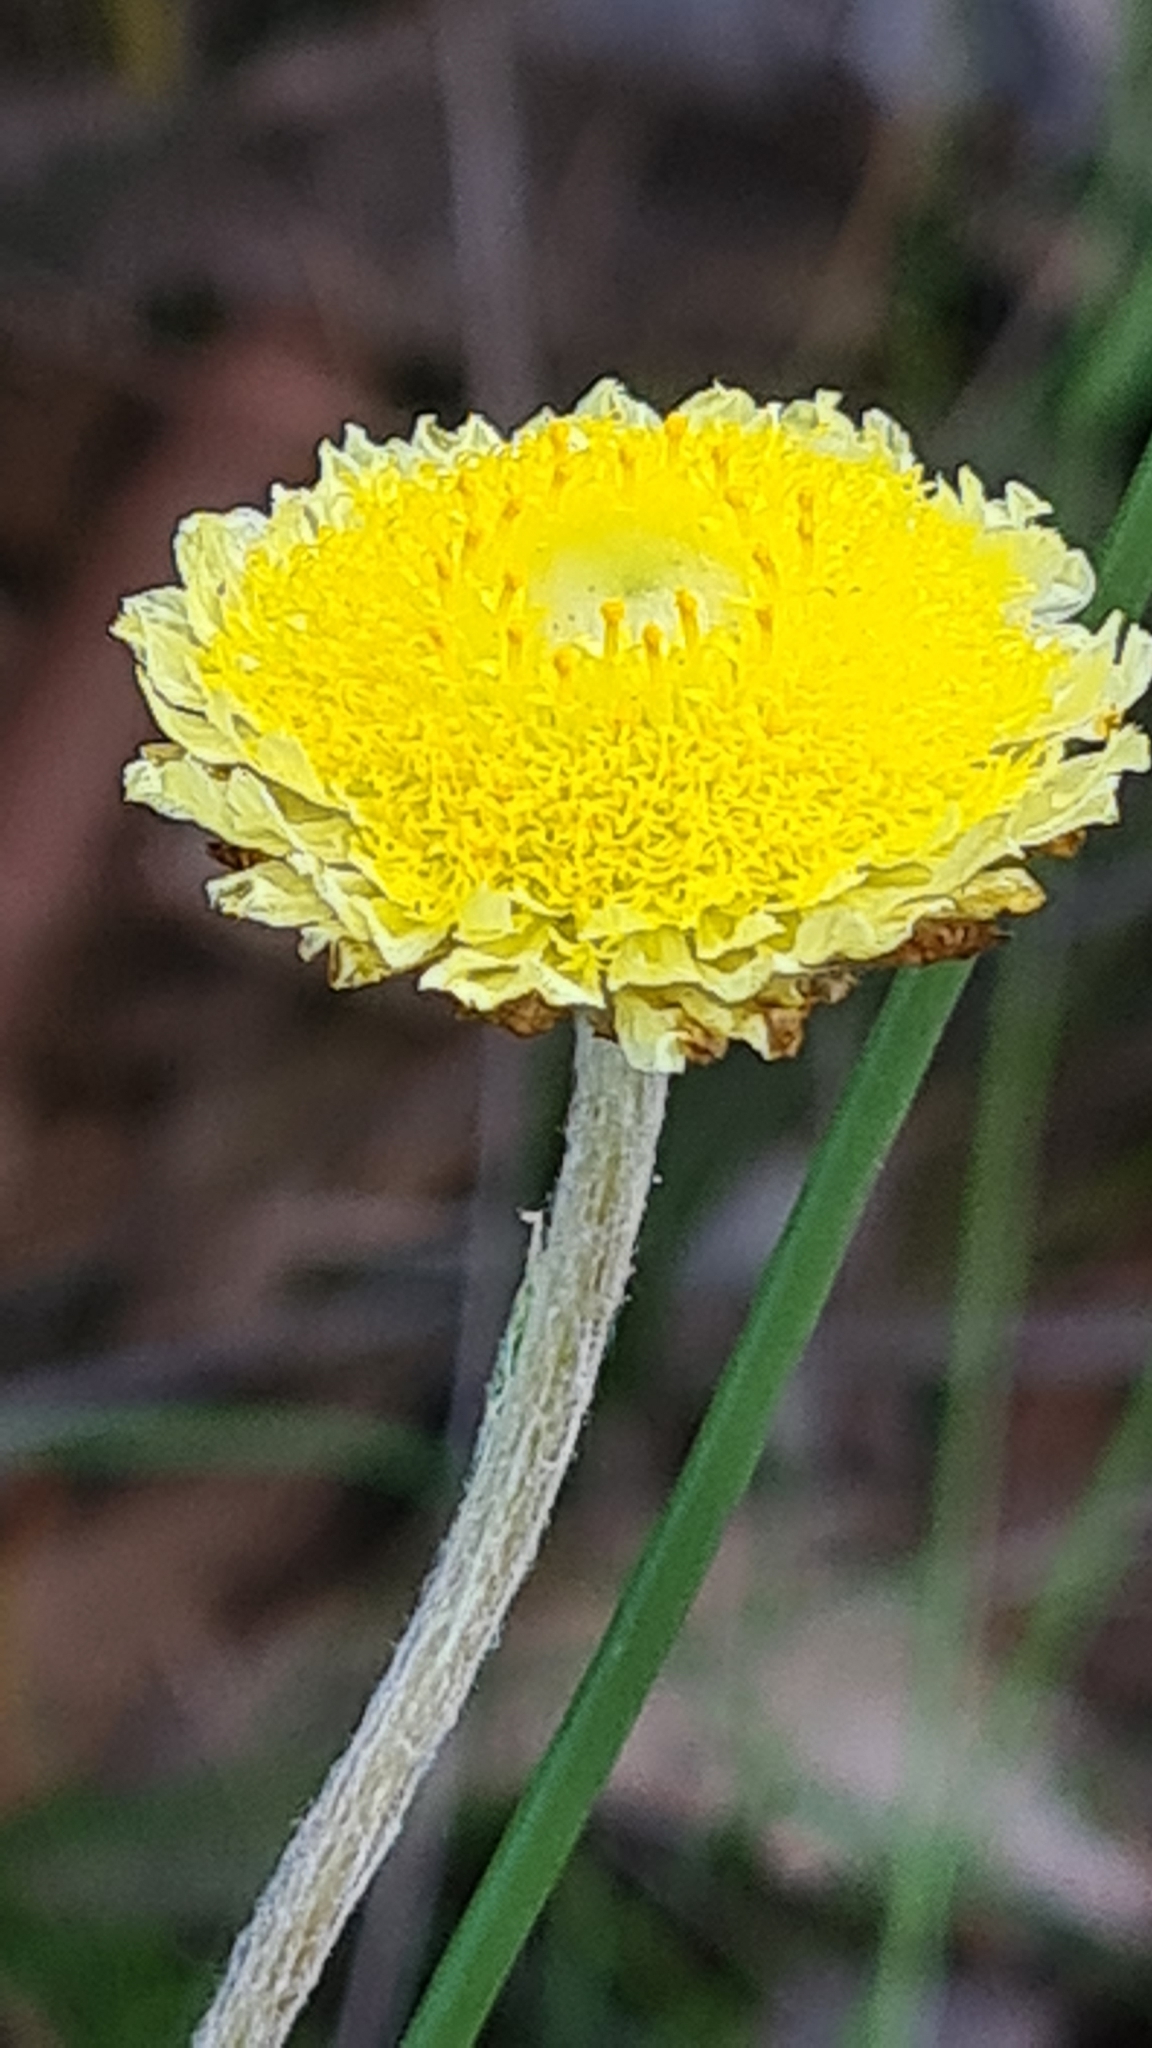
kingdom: Plantae
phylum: Tracheophyta
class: Magnoliopsida
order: Asterales
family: Asteraceae
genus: Coronidium
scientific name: Coronidium scorpioides
